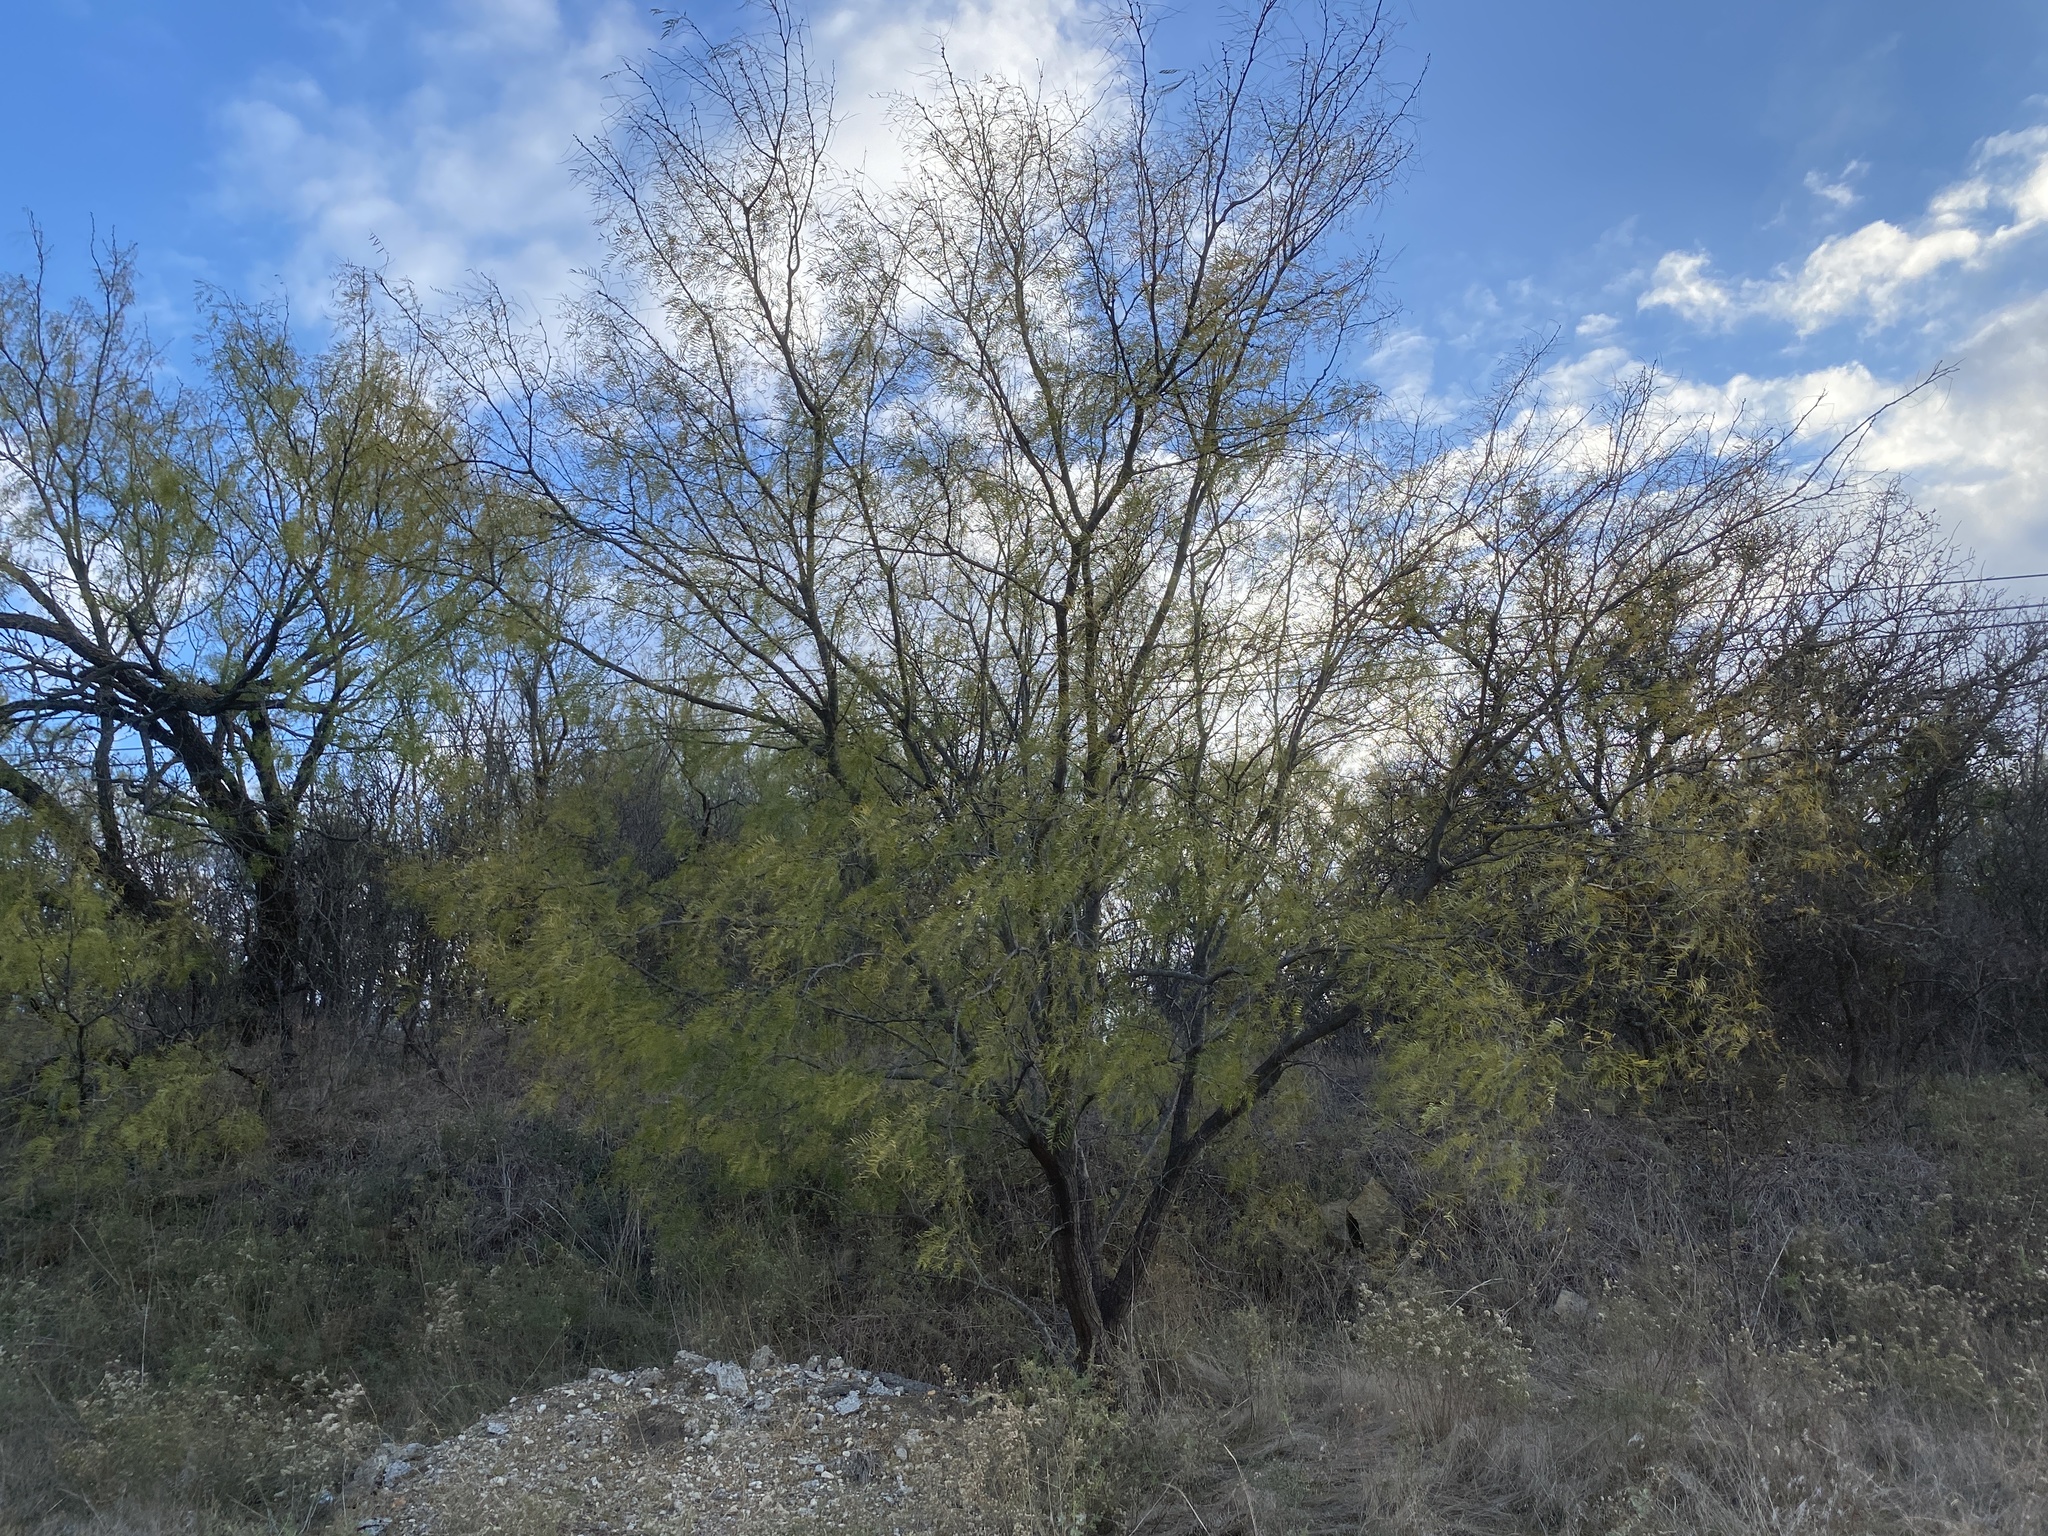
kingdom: Plantae
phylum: Tracheophyta
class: Magnoliopsida
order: Fabales
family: Fabaceae
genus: Prosopis
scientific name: Prosopis glandulosa
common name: Honey mesquite
